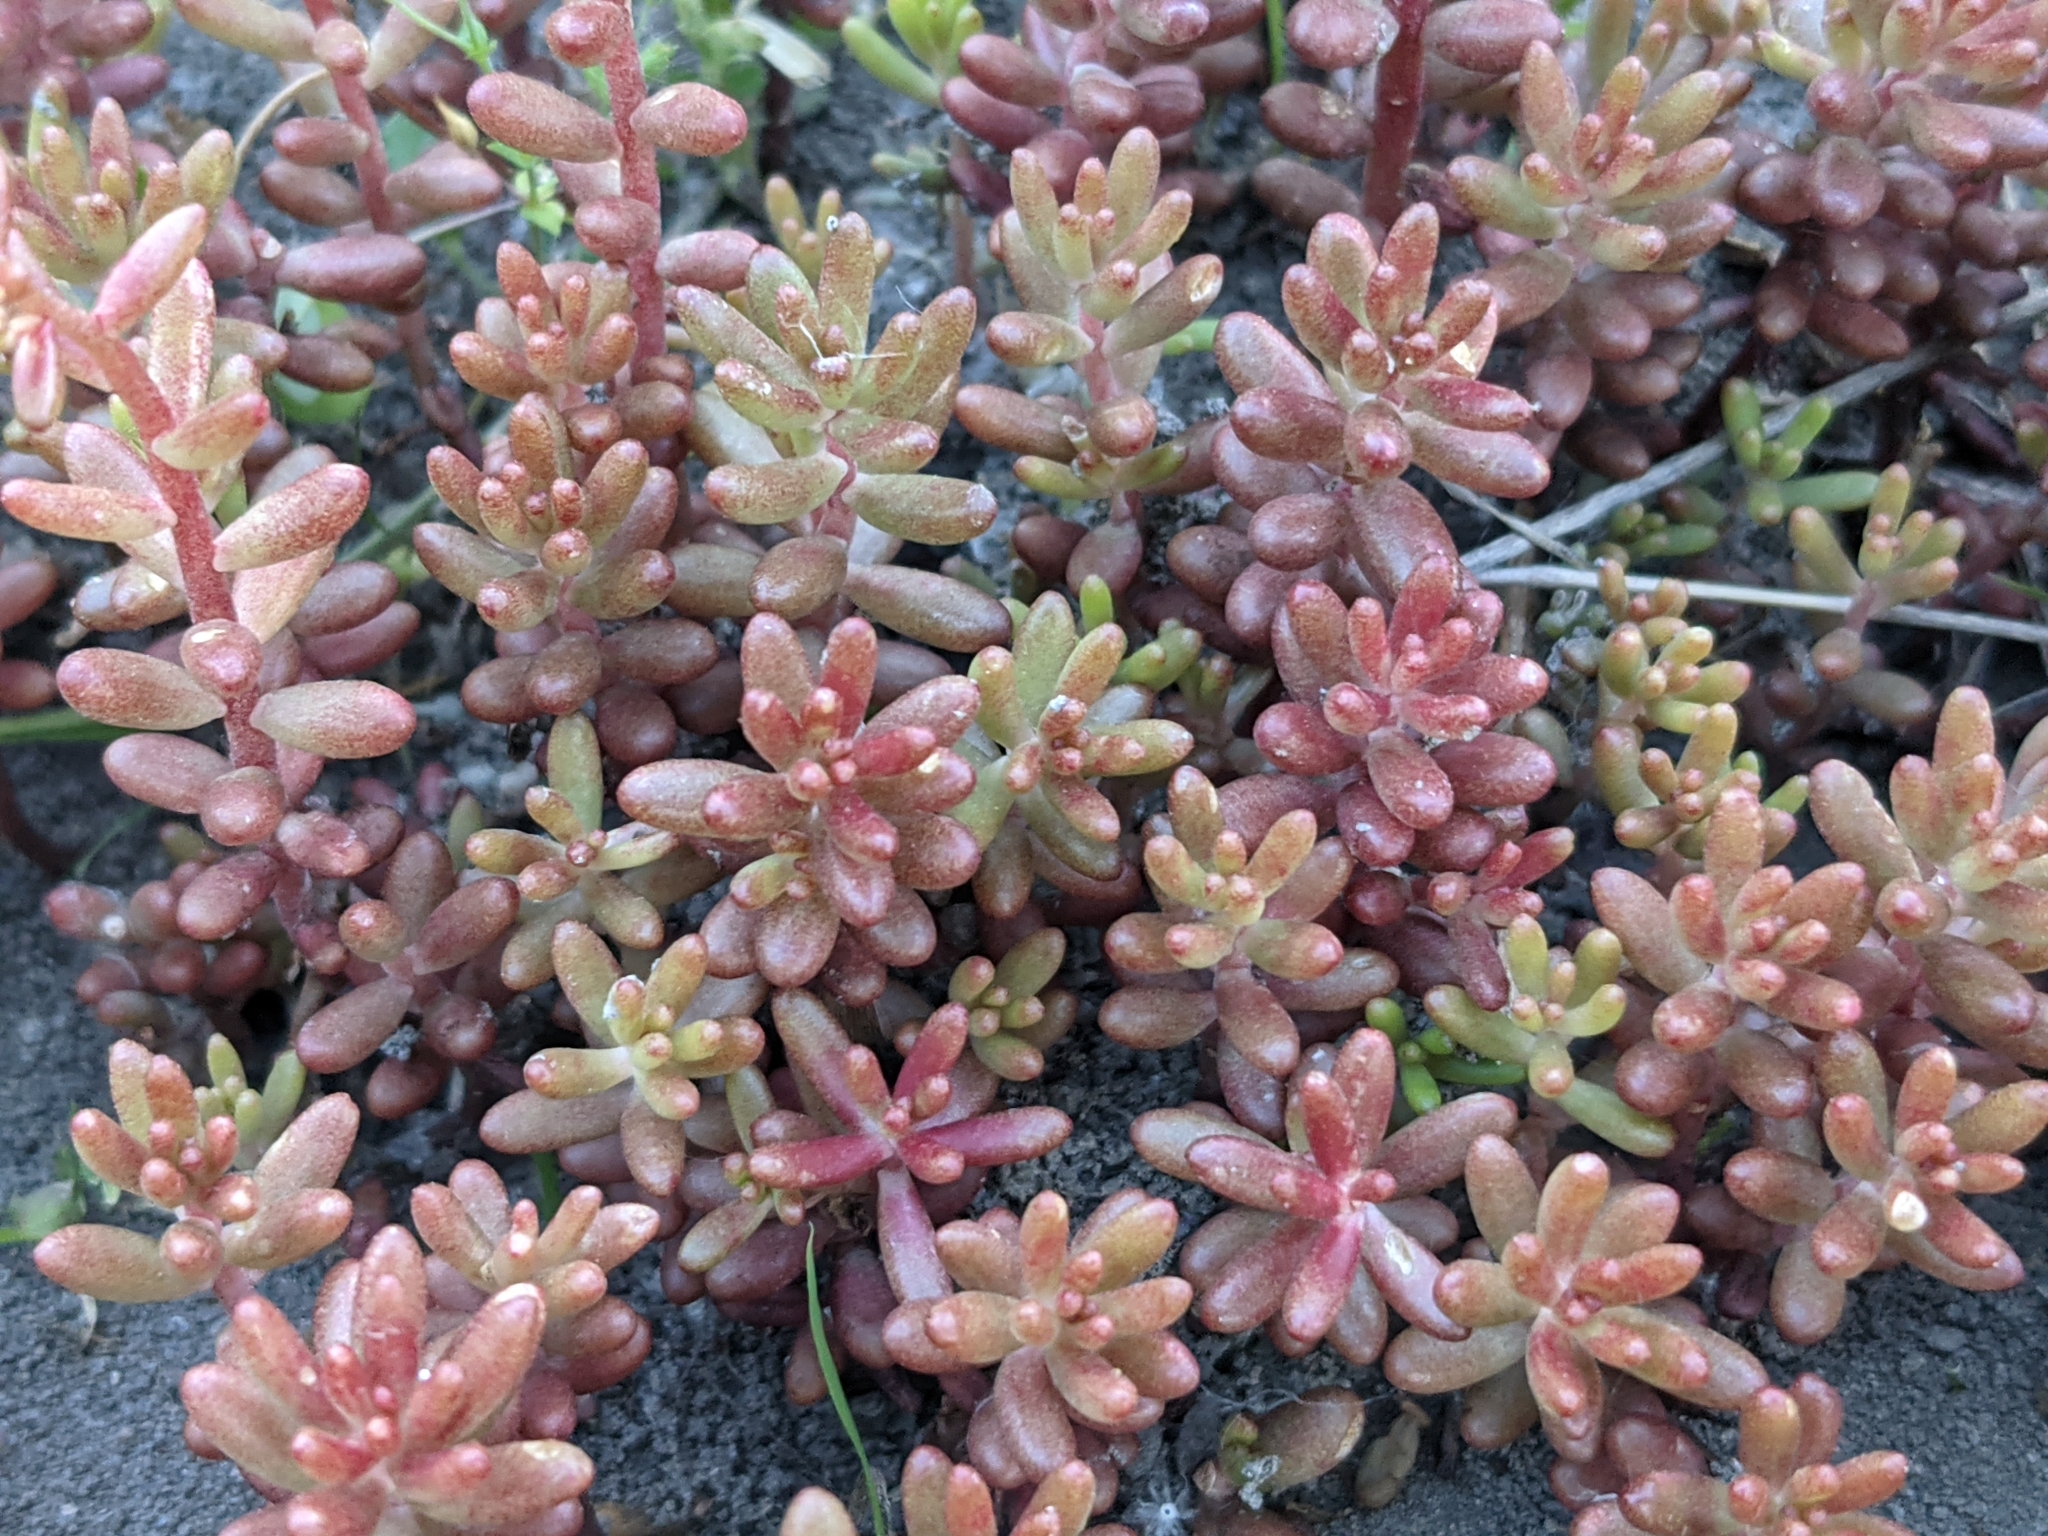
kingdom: Plantae
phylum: Tracheophyta
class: Magnoliopsida
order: Saxifragales
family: Crassulaceae
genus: Sedum
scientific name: Sedum album
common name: White stonecrop
